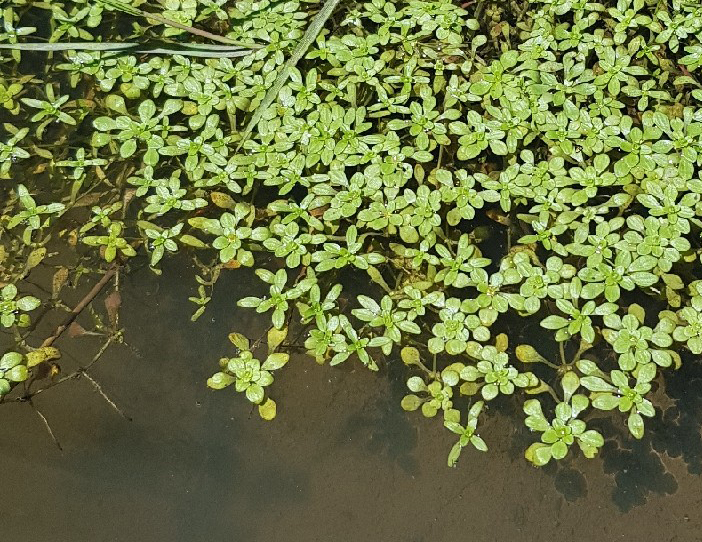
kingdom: Plantae
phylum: Tracheophyta
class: Magnoliopsida
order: Lamiales
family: Plantaginaceae
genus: Callitriche
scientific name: Callitriche palustris
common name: Spring water-starwort
